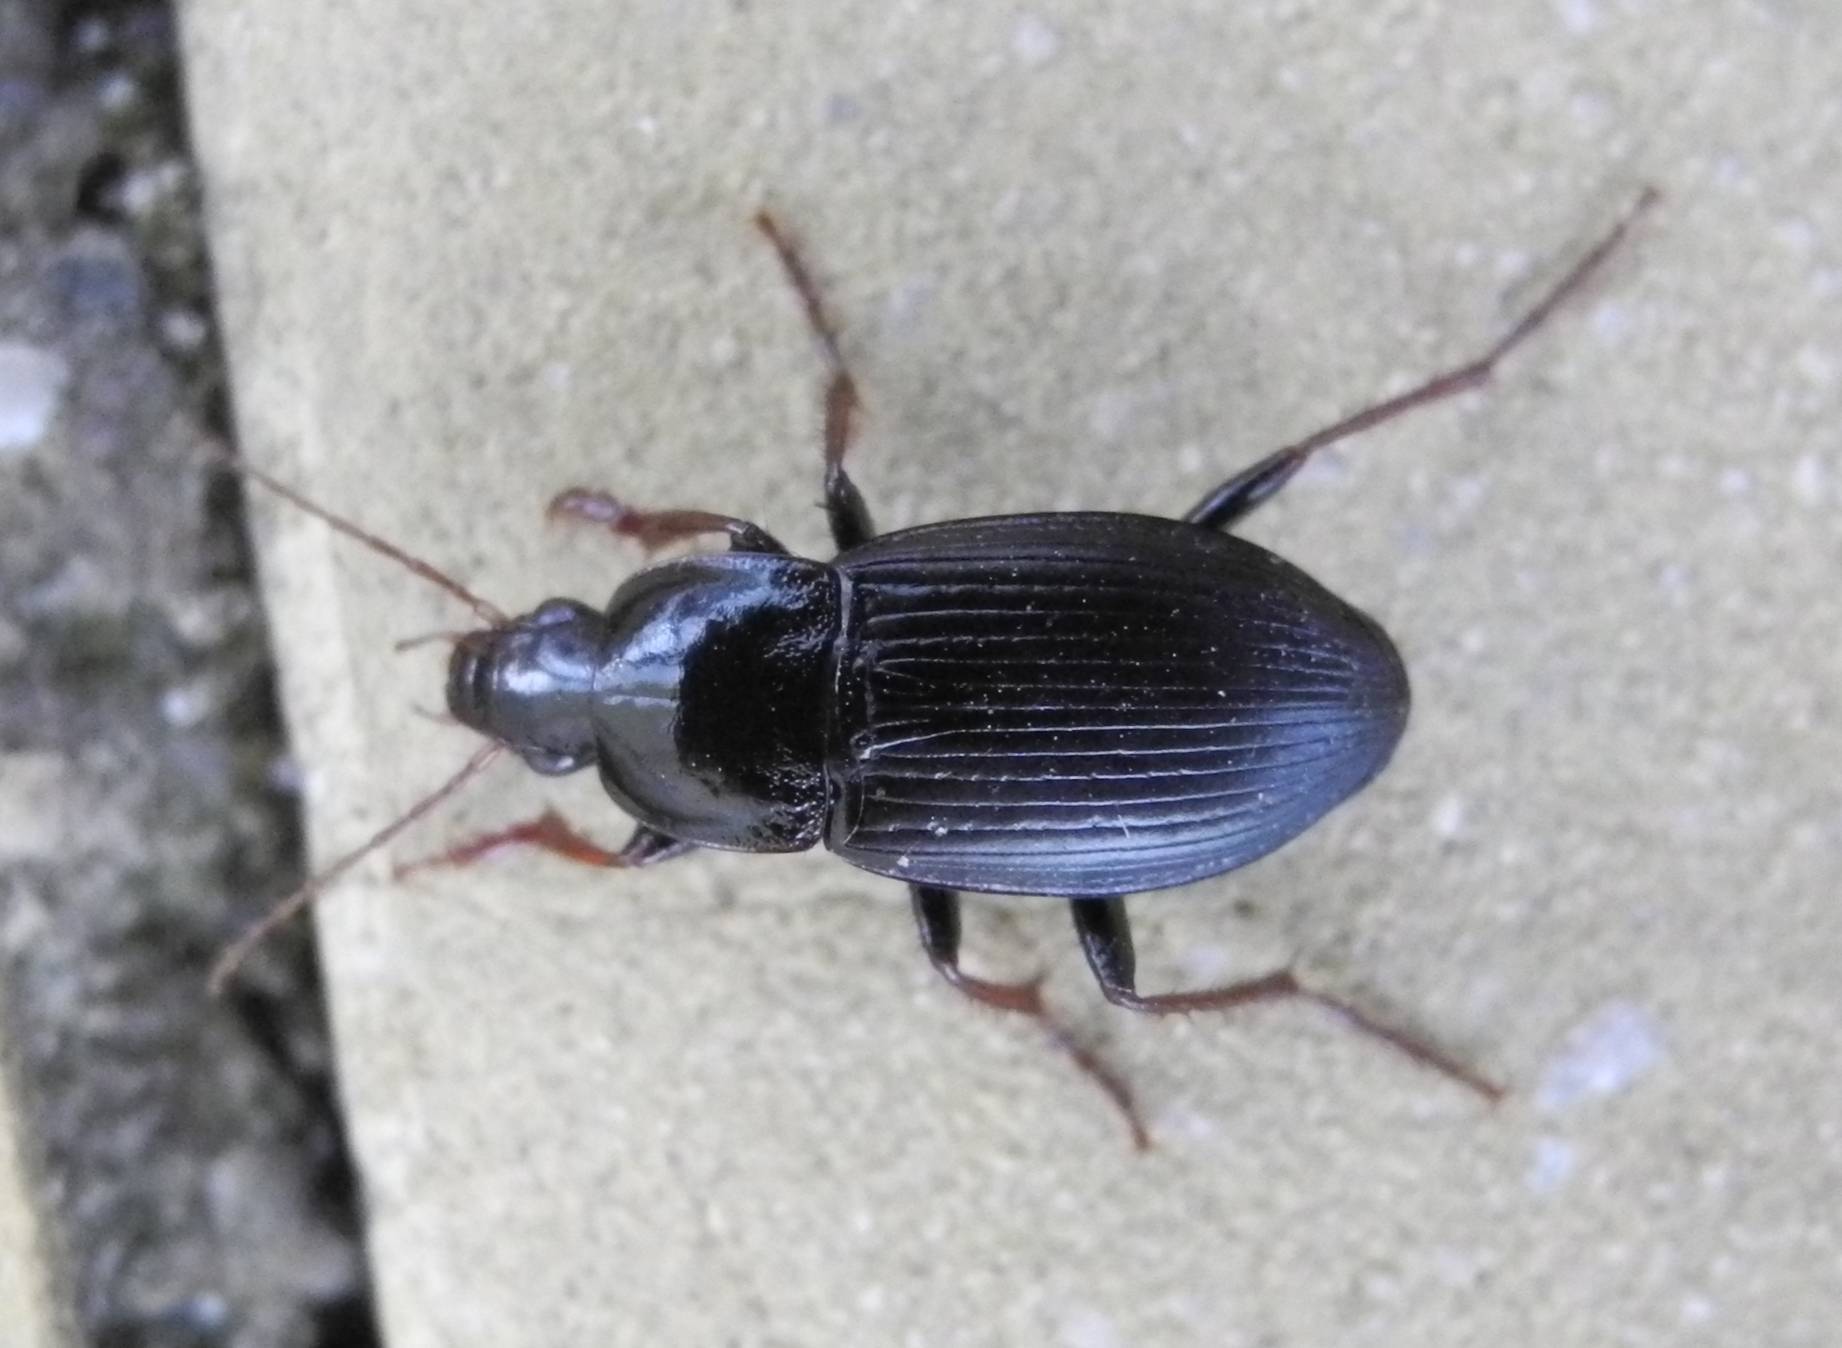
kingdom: Animalia
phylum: Arthropoda
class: Insecta
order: Coleoptera
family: Carabidae
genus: Calathus
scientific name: Calathus fuscipes
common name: Dark-footed harp ground beetle
